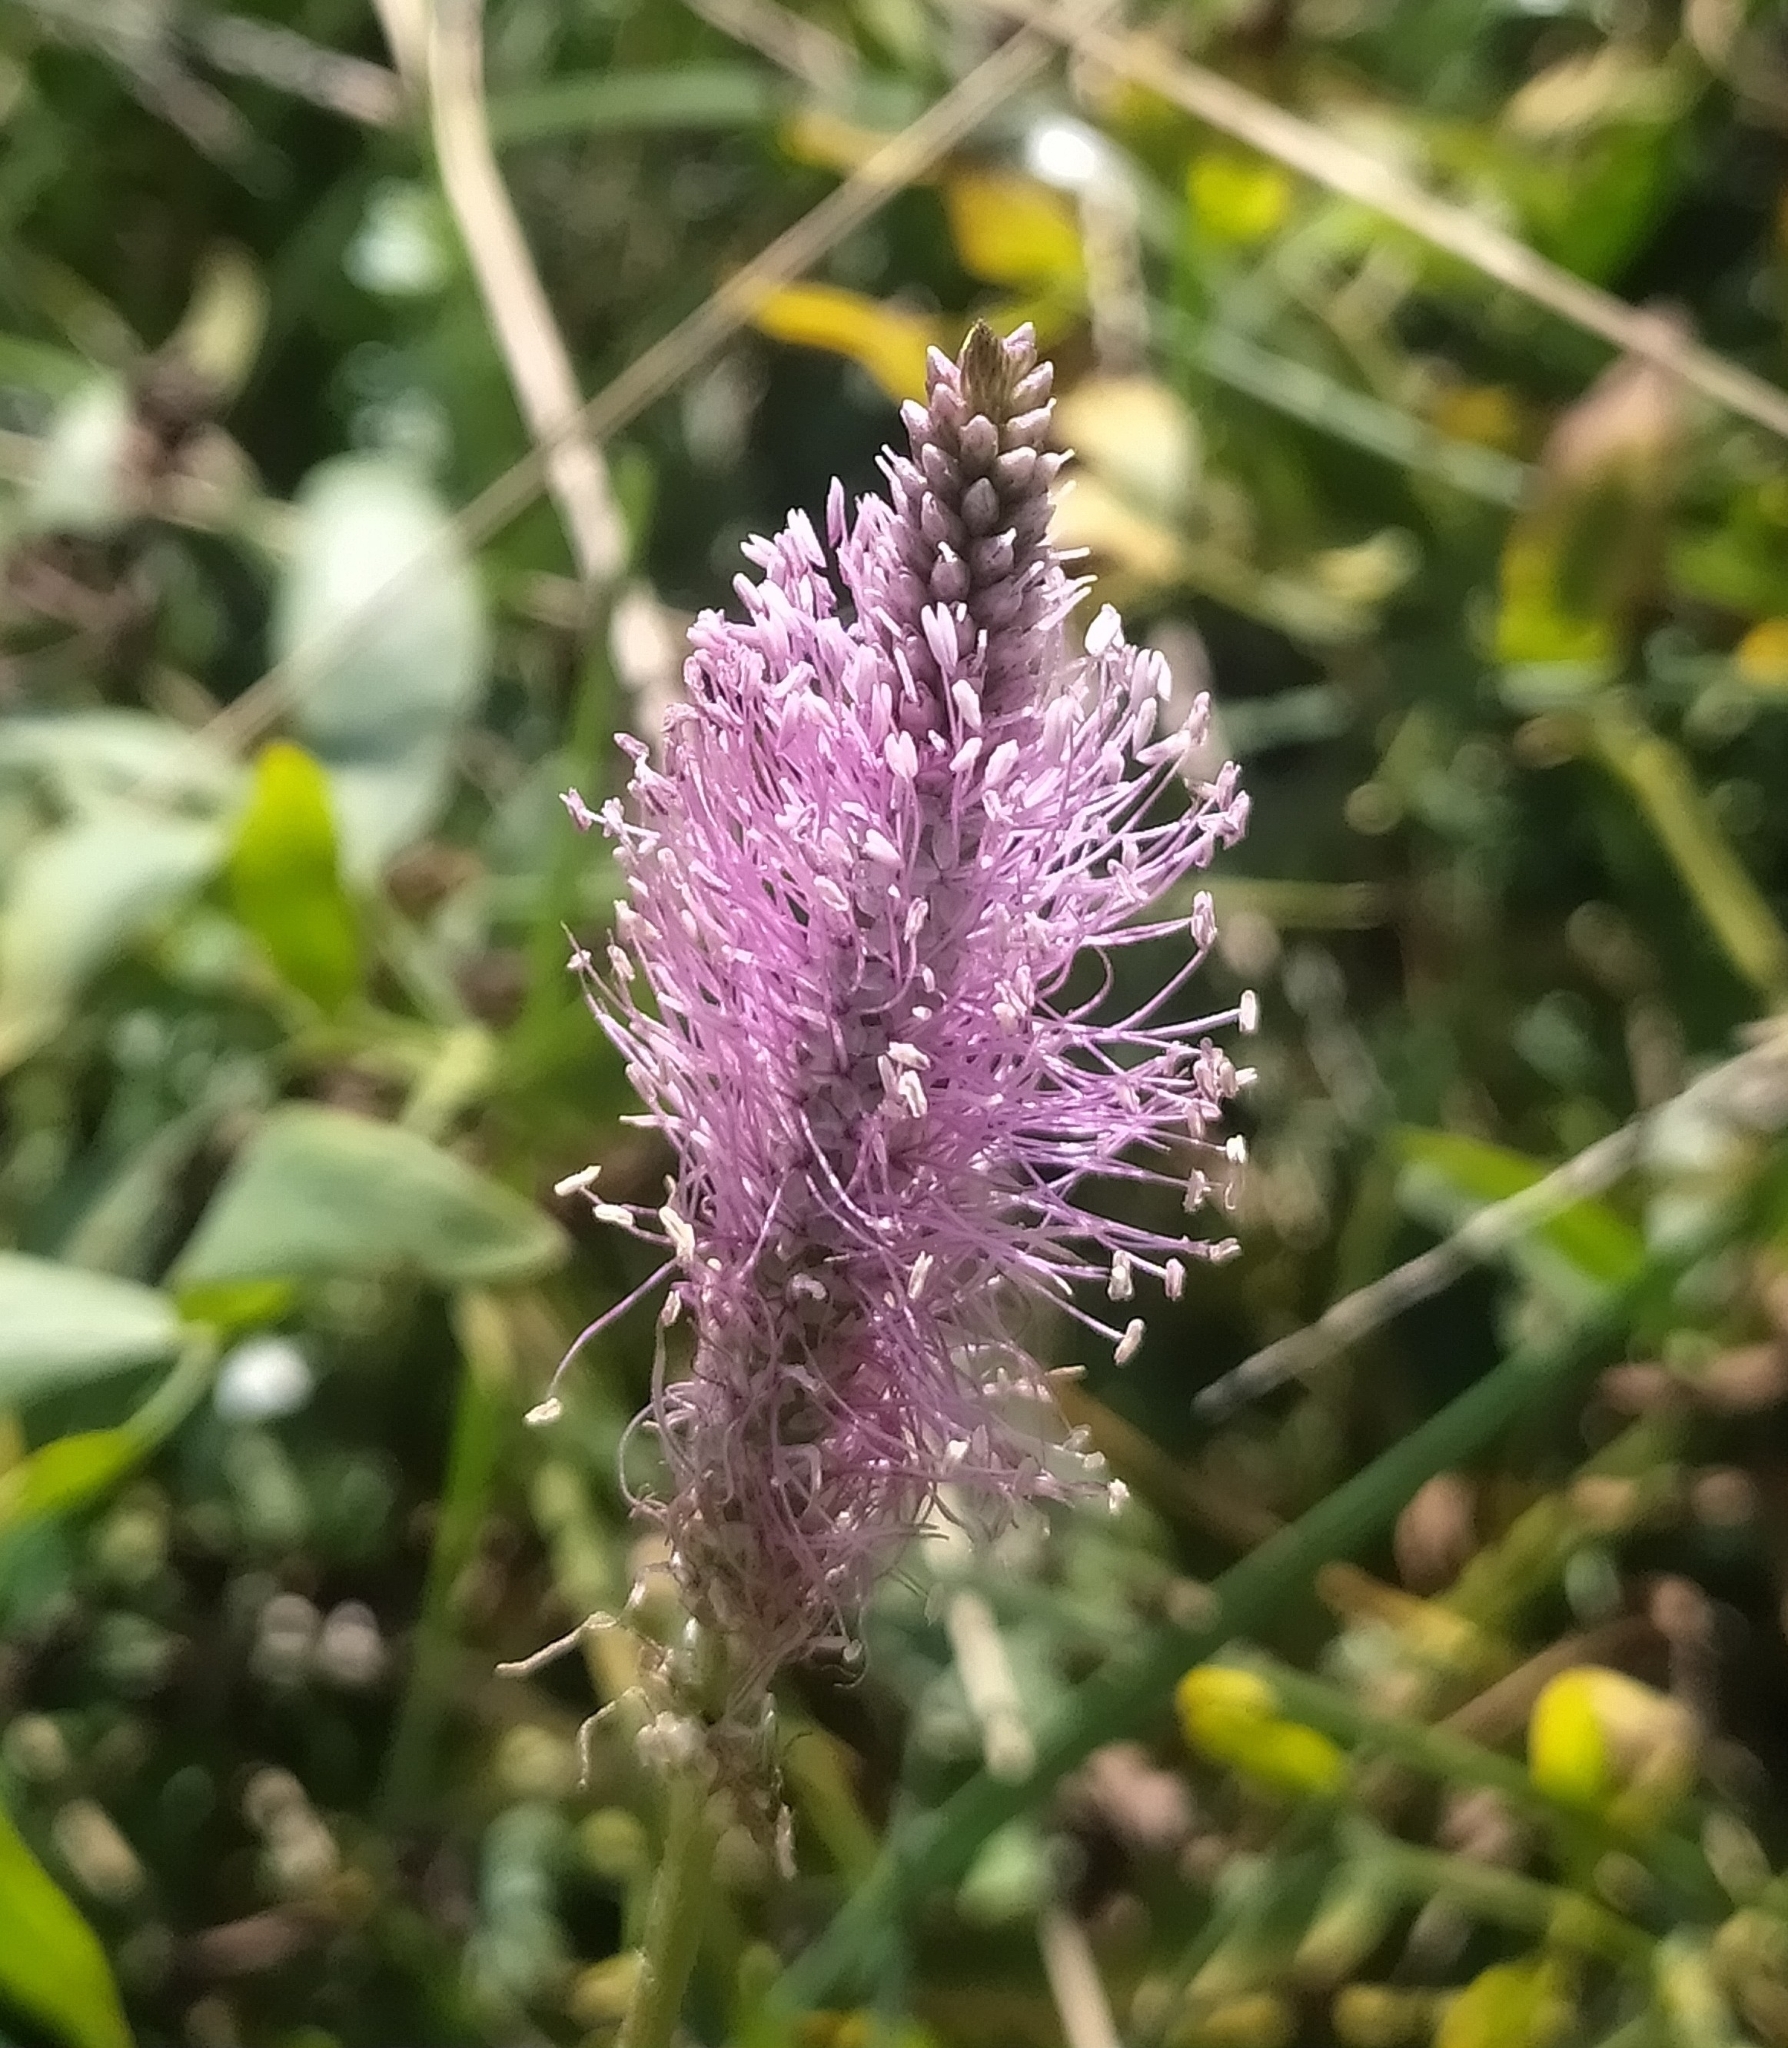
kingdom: Plantae
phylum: Tracheophyta
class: Magnoliopsida
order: Lamiales
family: Plantaginaceae
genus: Plantago
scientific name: Plantago media
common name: Hoary plantain
